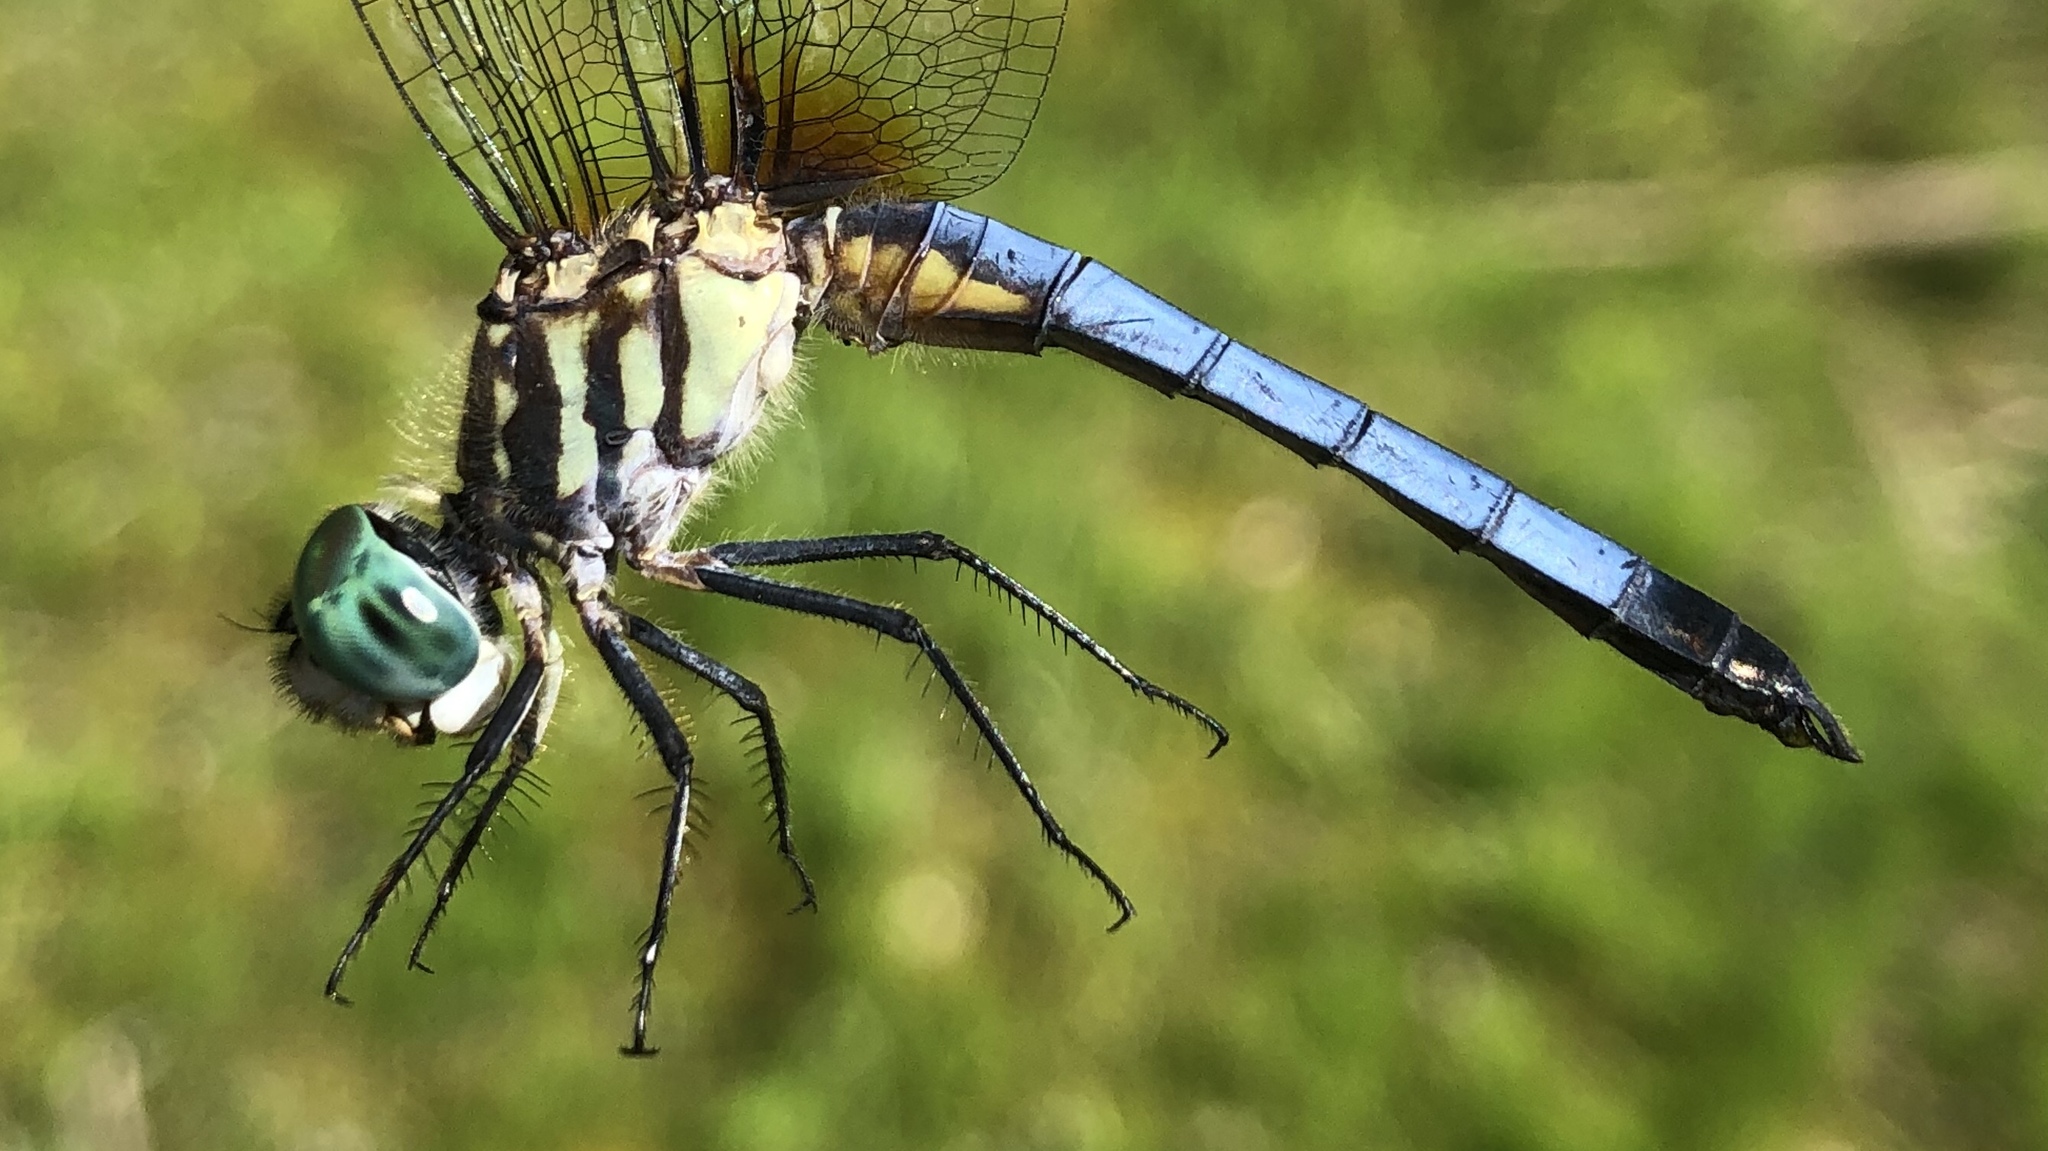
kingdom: Animalia
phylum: Arthropoda
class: Insecta
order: Odonata
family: Libellulidae
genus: Pachydiplax
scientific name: Pachydiplax longipennis
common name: Blue dasher
